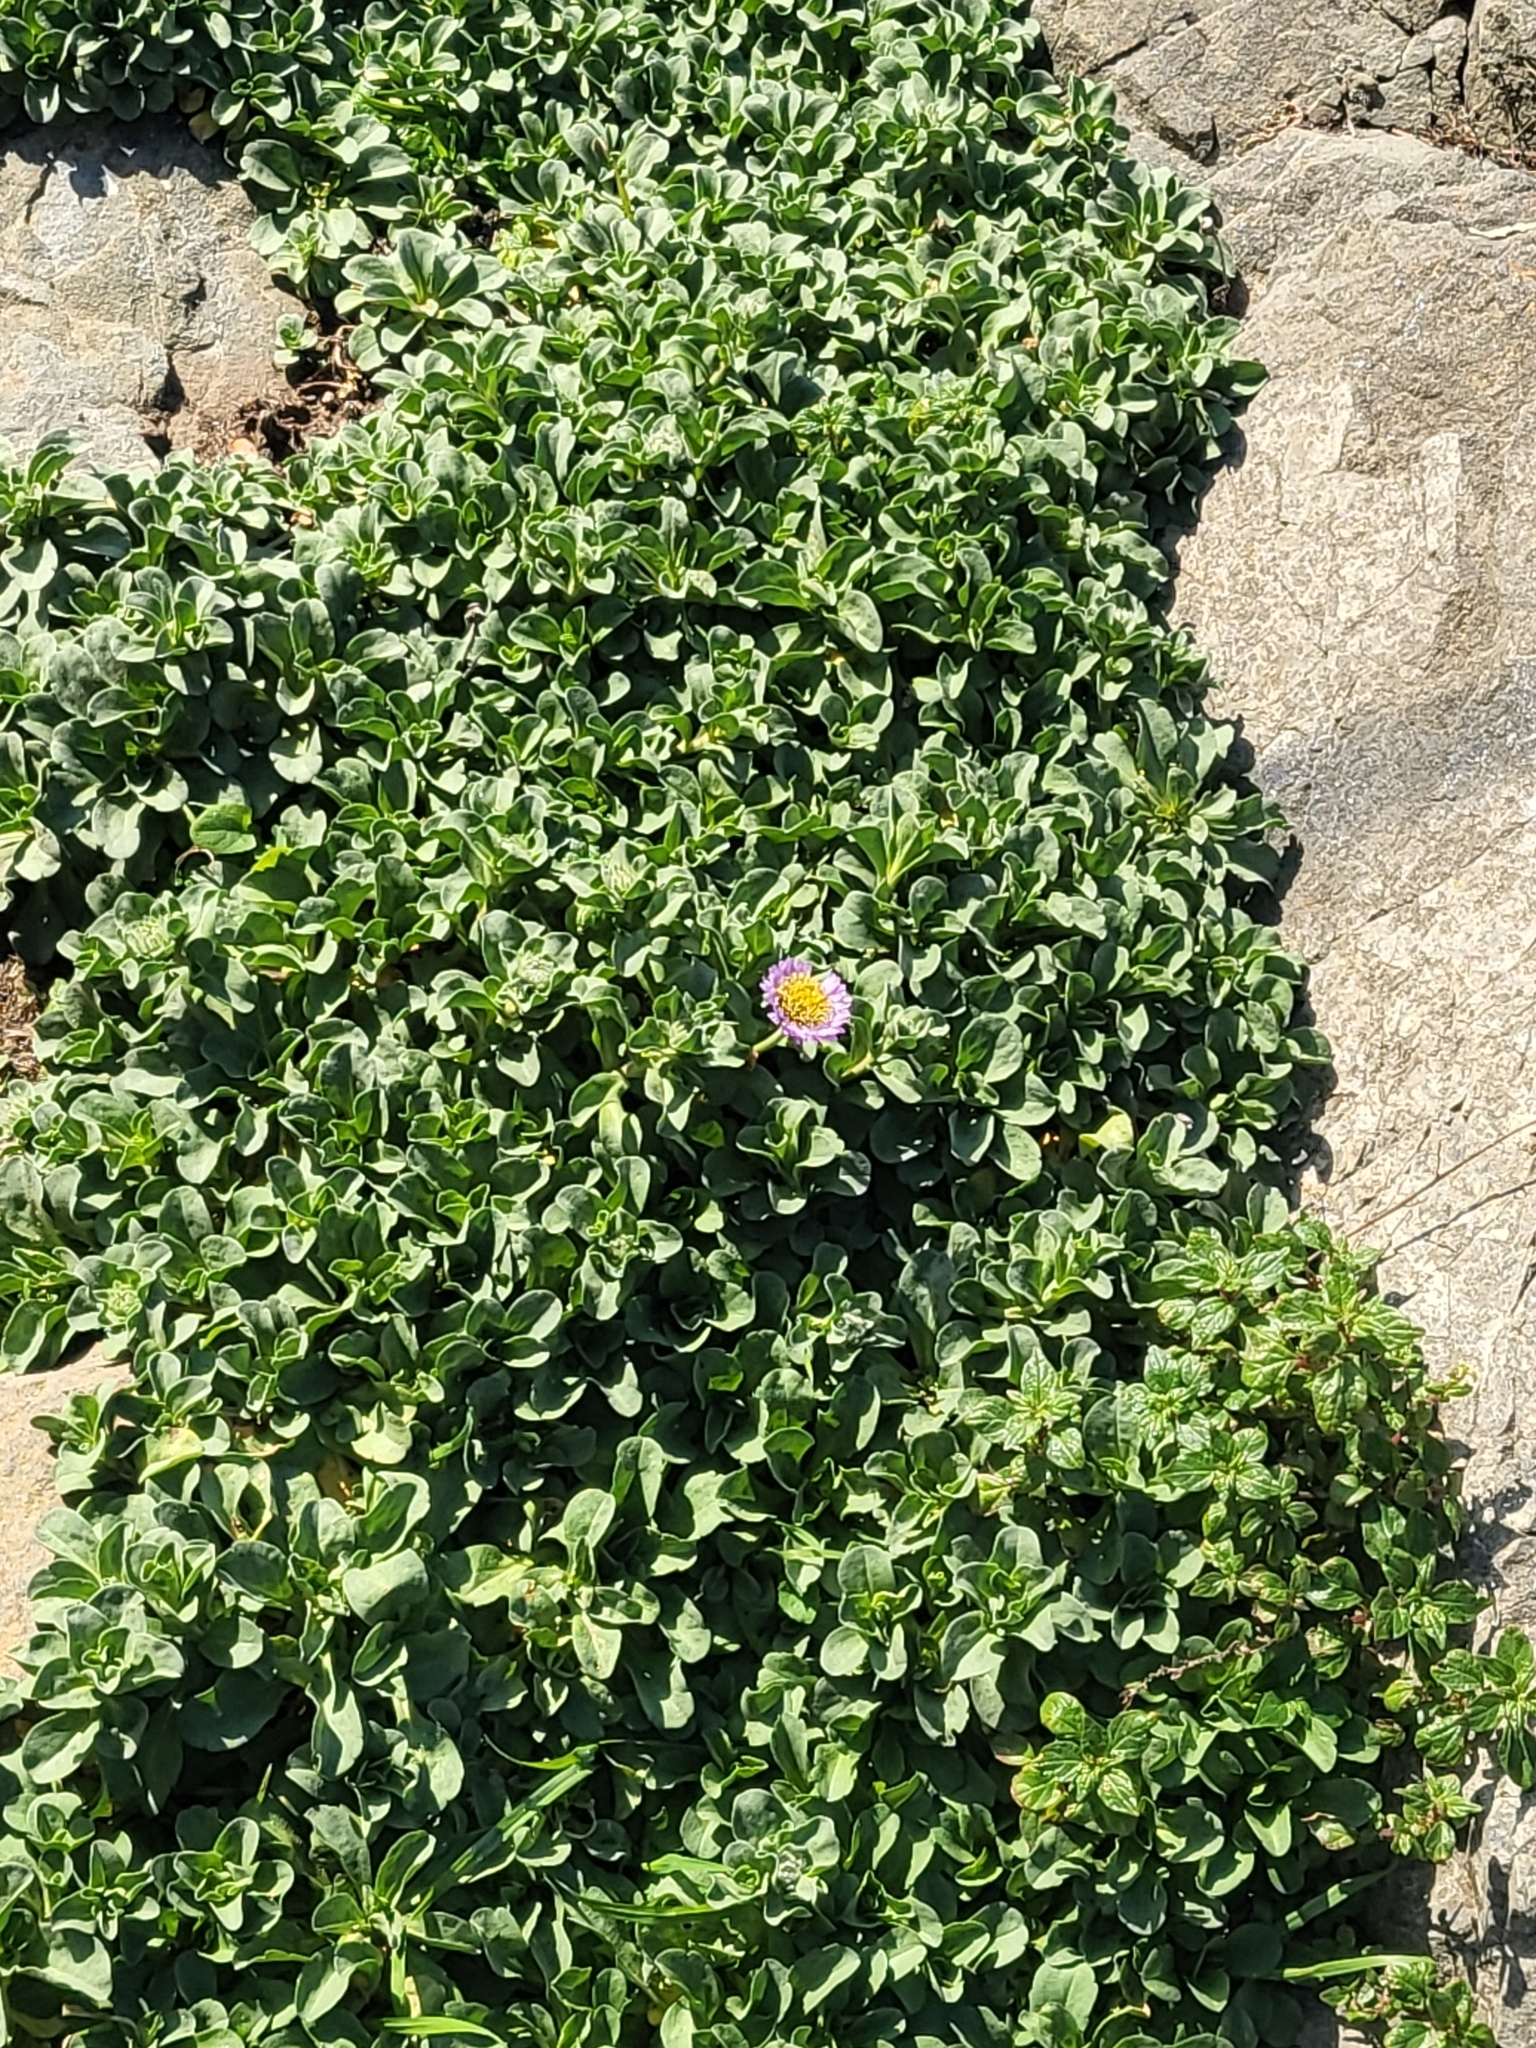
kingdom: Plantae
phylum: Tracheophyta
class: Magnoliopsida
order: Asterales
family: Asteraceae
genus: Erigeron
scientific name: Erigeron glaucus
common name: Seaside daisy
